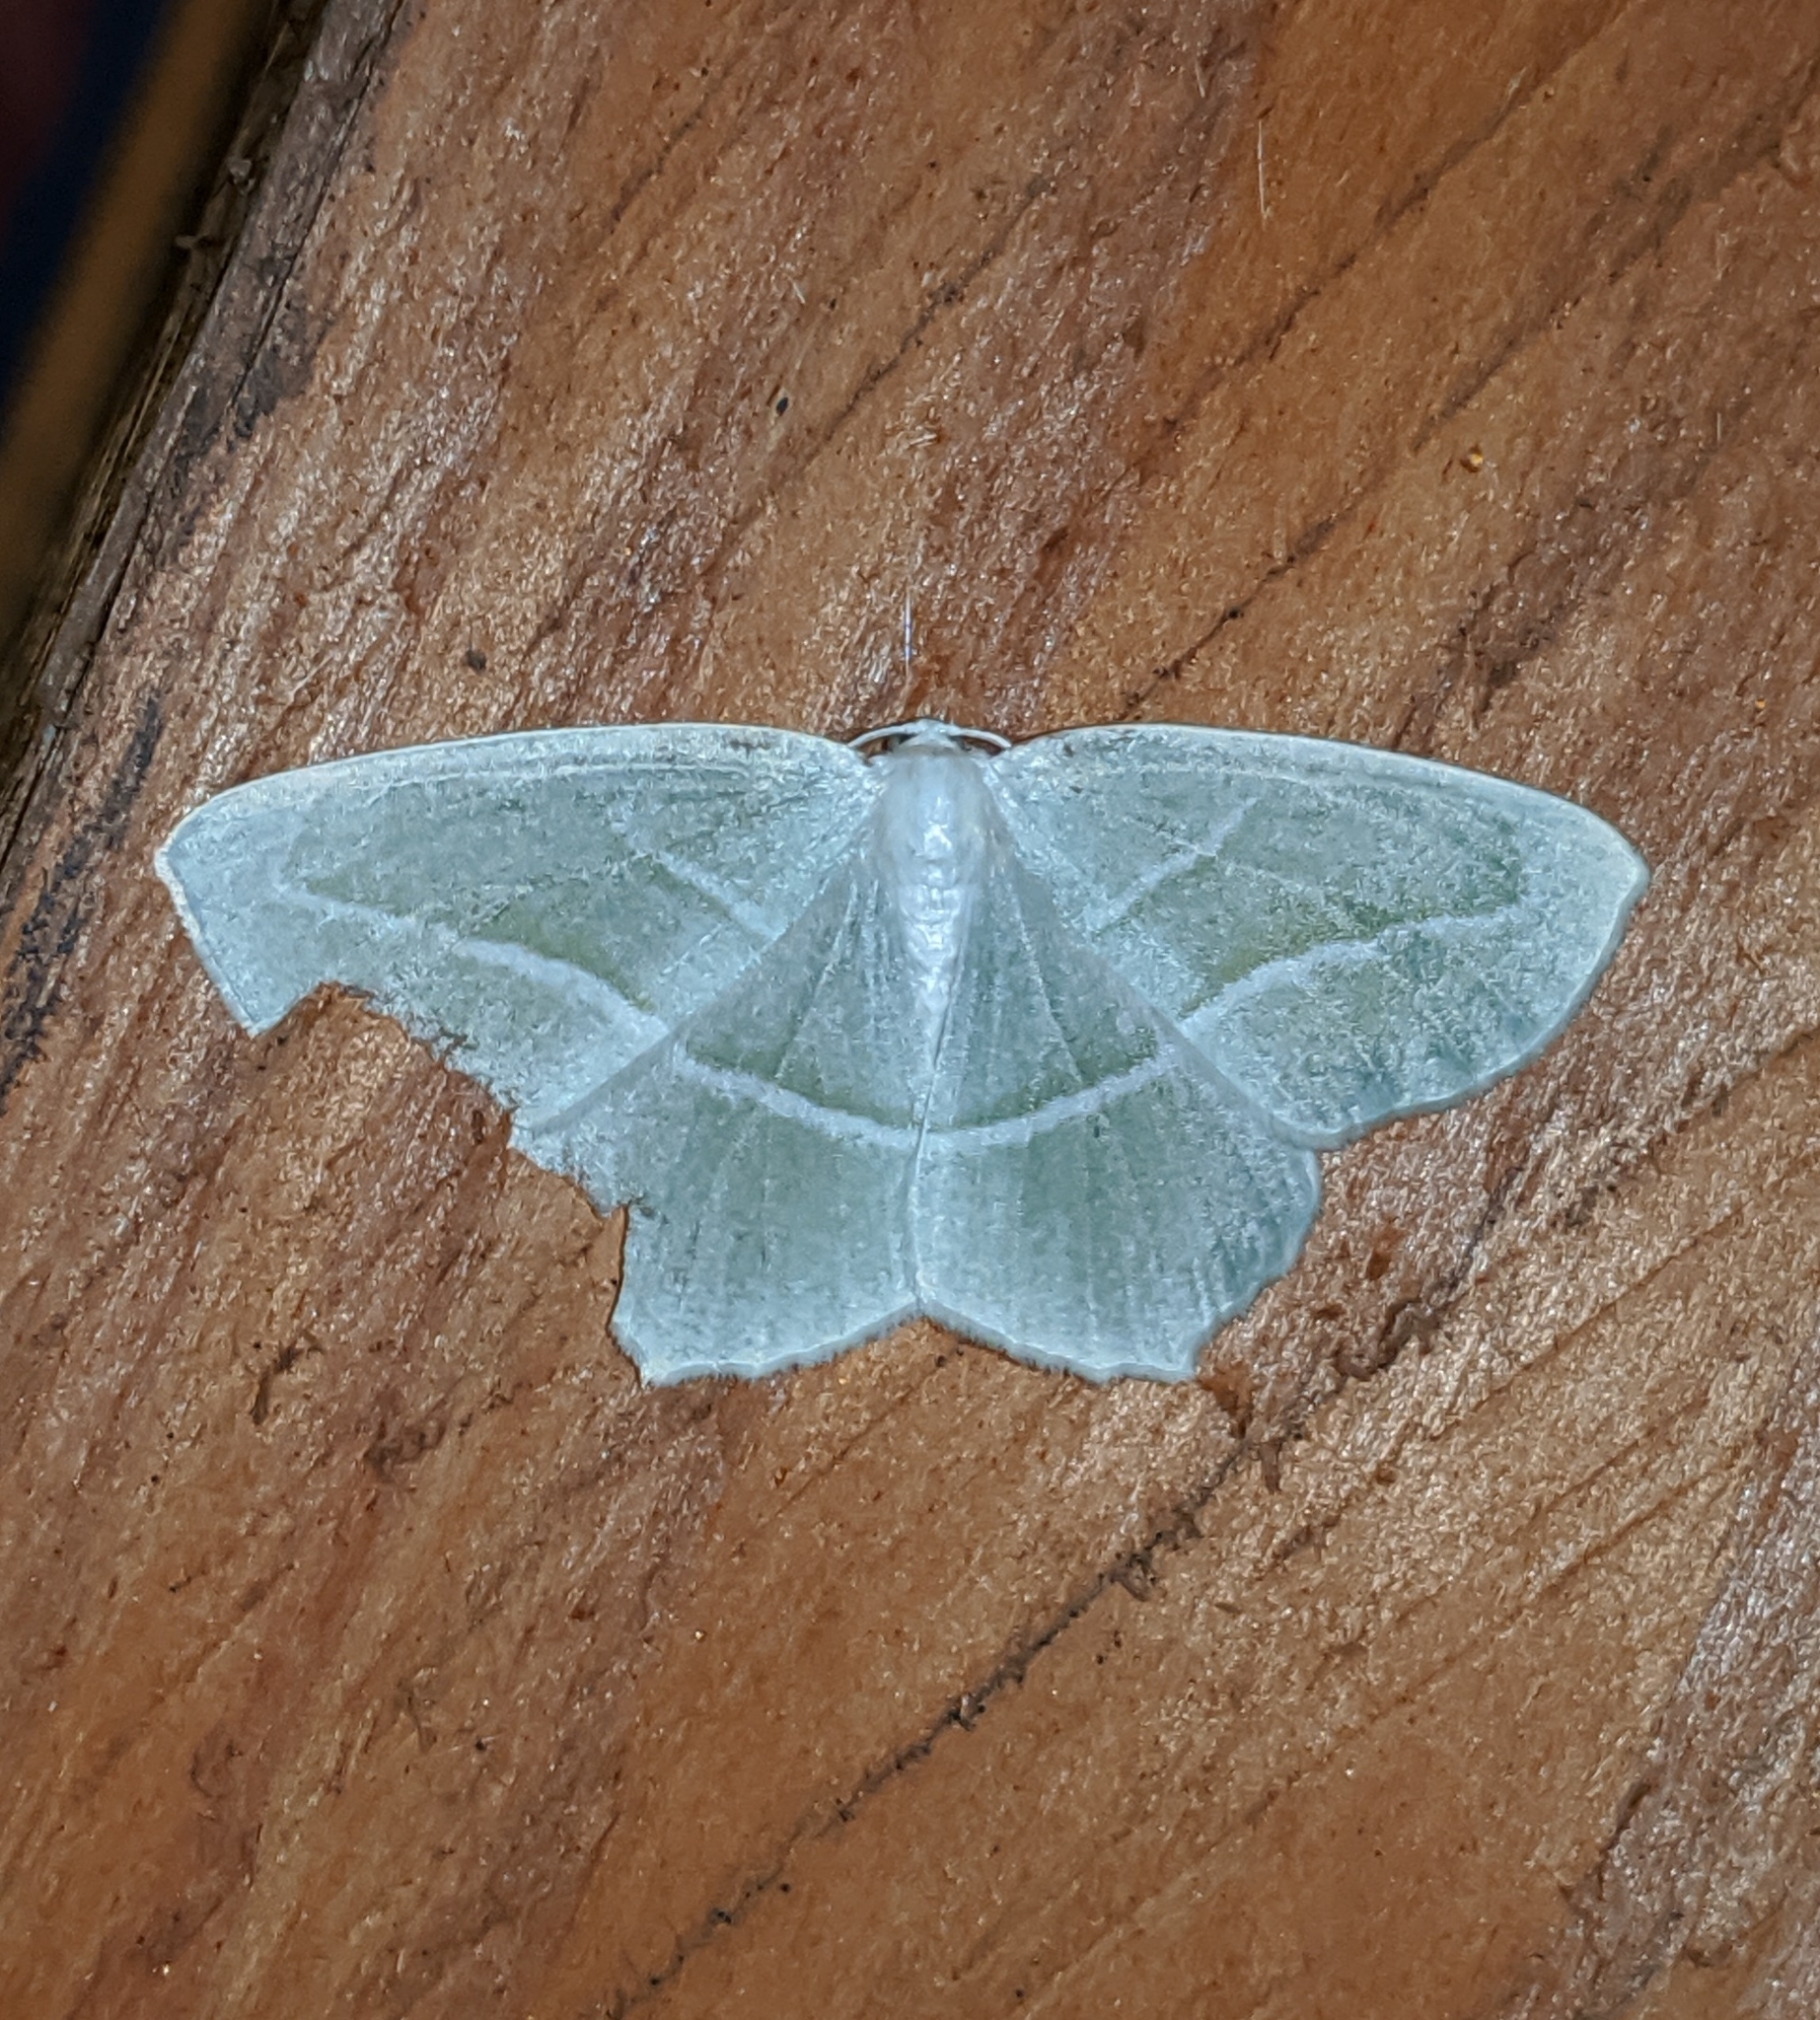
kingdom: Animalia
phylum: Arthropoda
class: Insecta
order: Lepidoptera
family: Geometridae
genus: Campaea
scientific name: Campaea perlata
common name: Fringed looper
